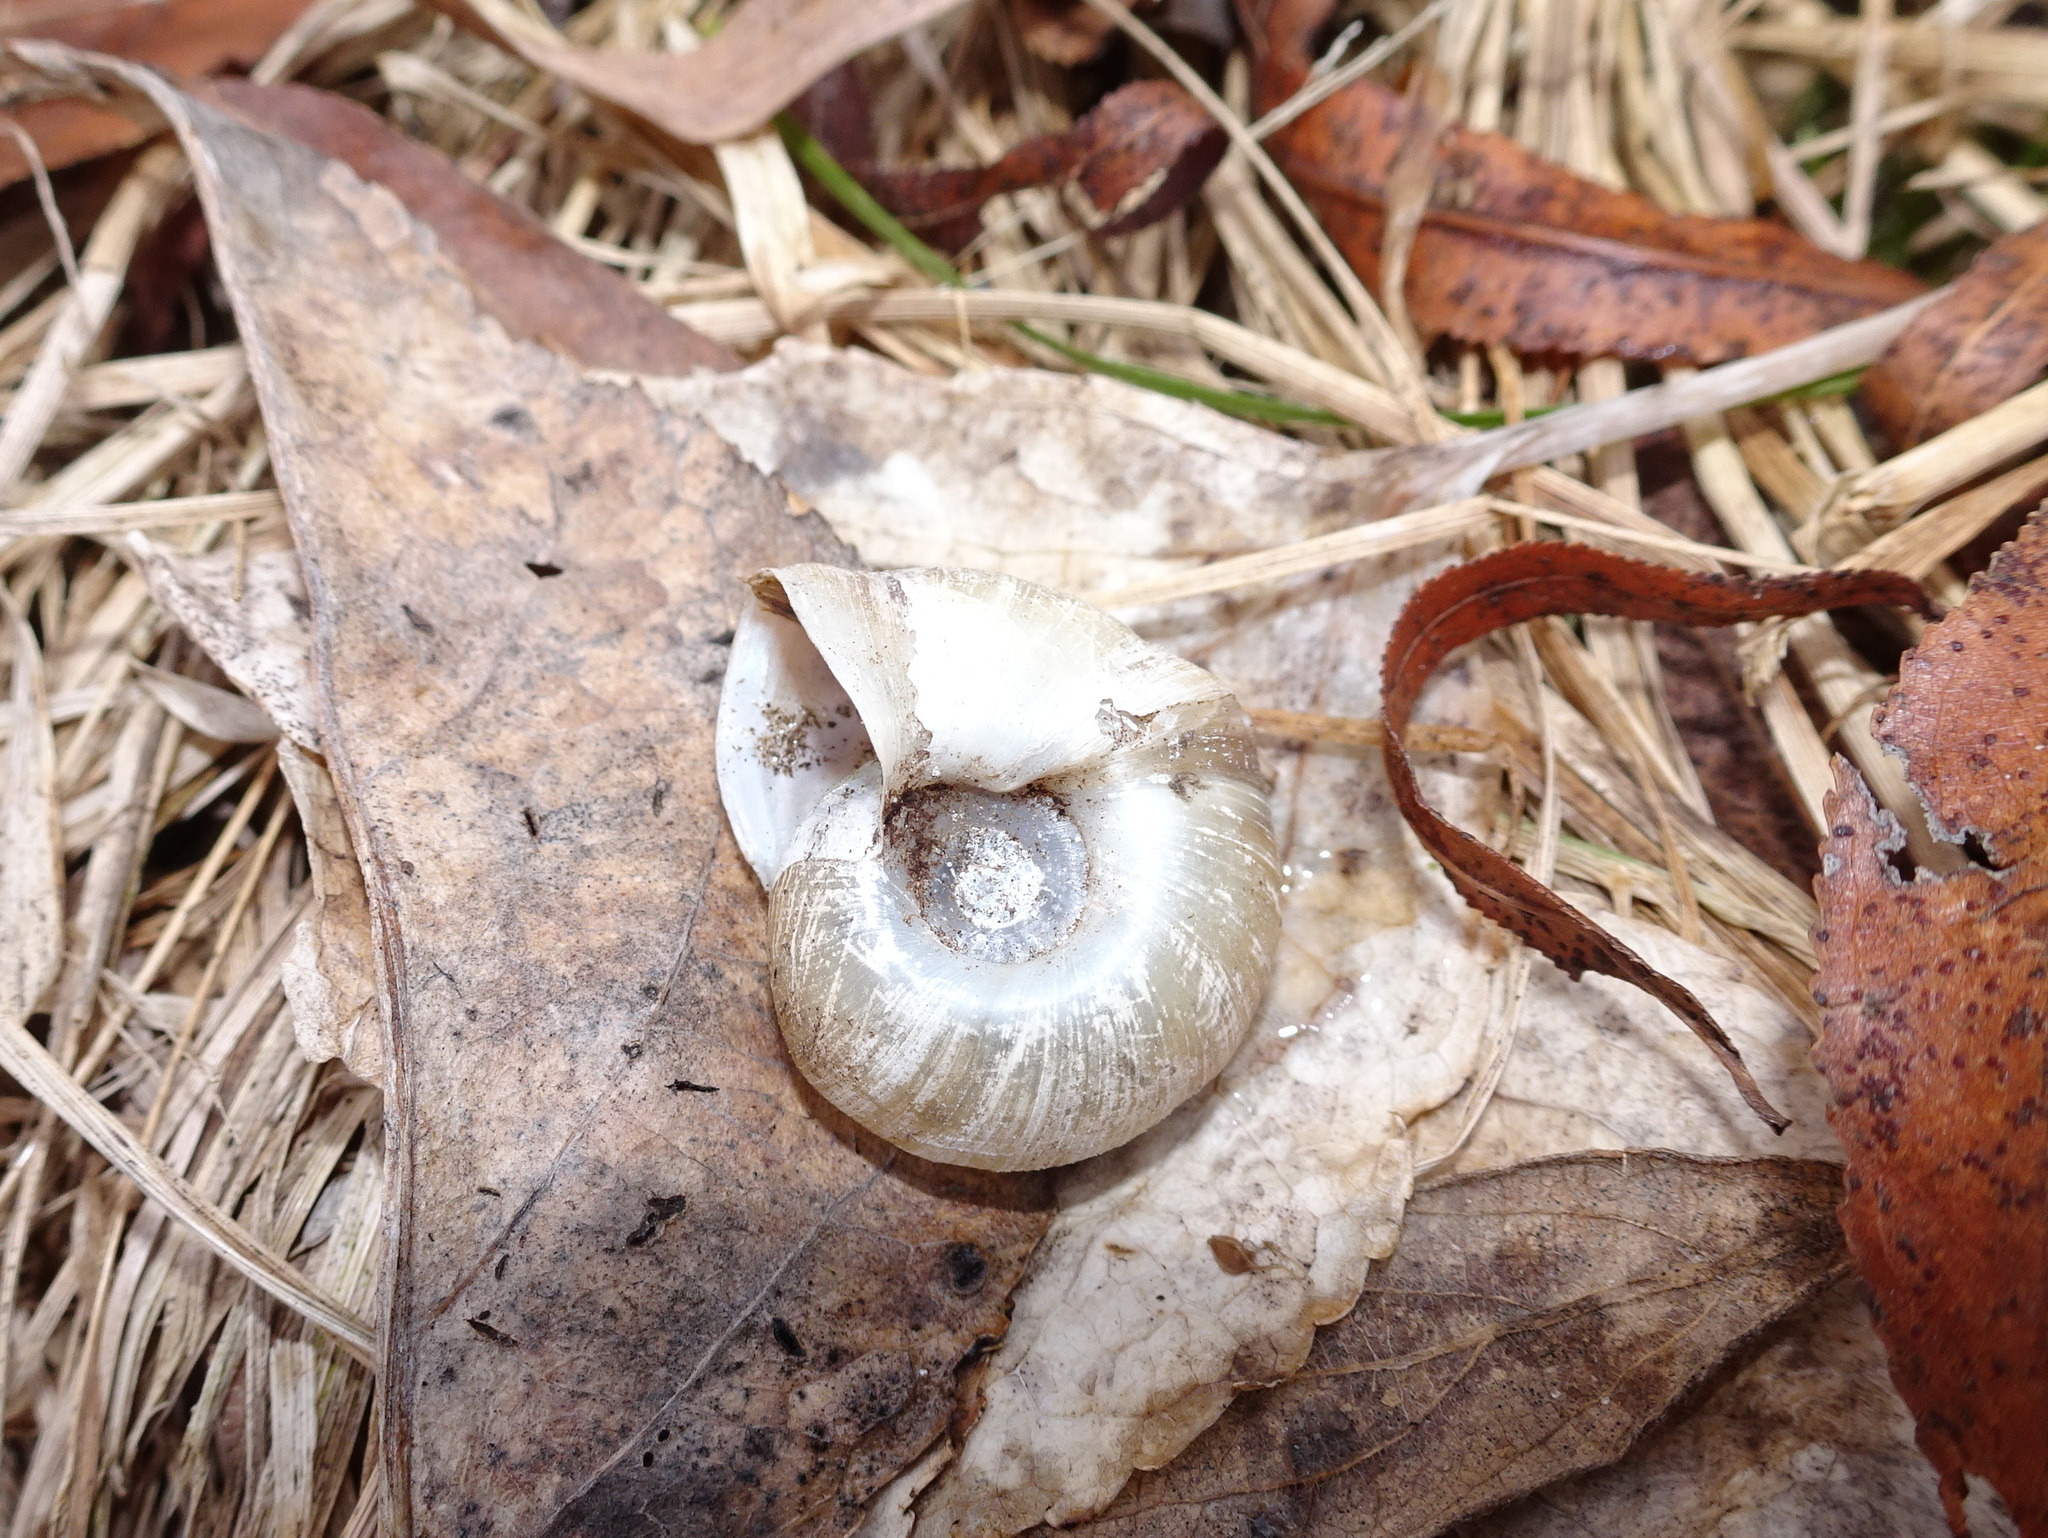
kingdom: Animalia
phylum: Mollusca
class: Gastropoda
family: Planorbidae
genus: Planorbella
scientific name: Planorbella trivolvis
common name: Marsh rams-horn
